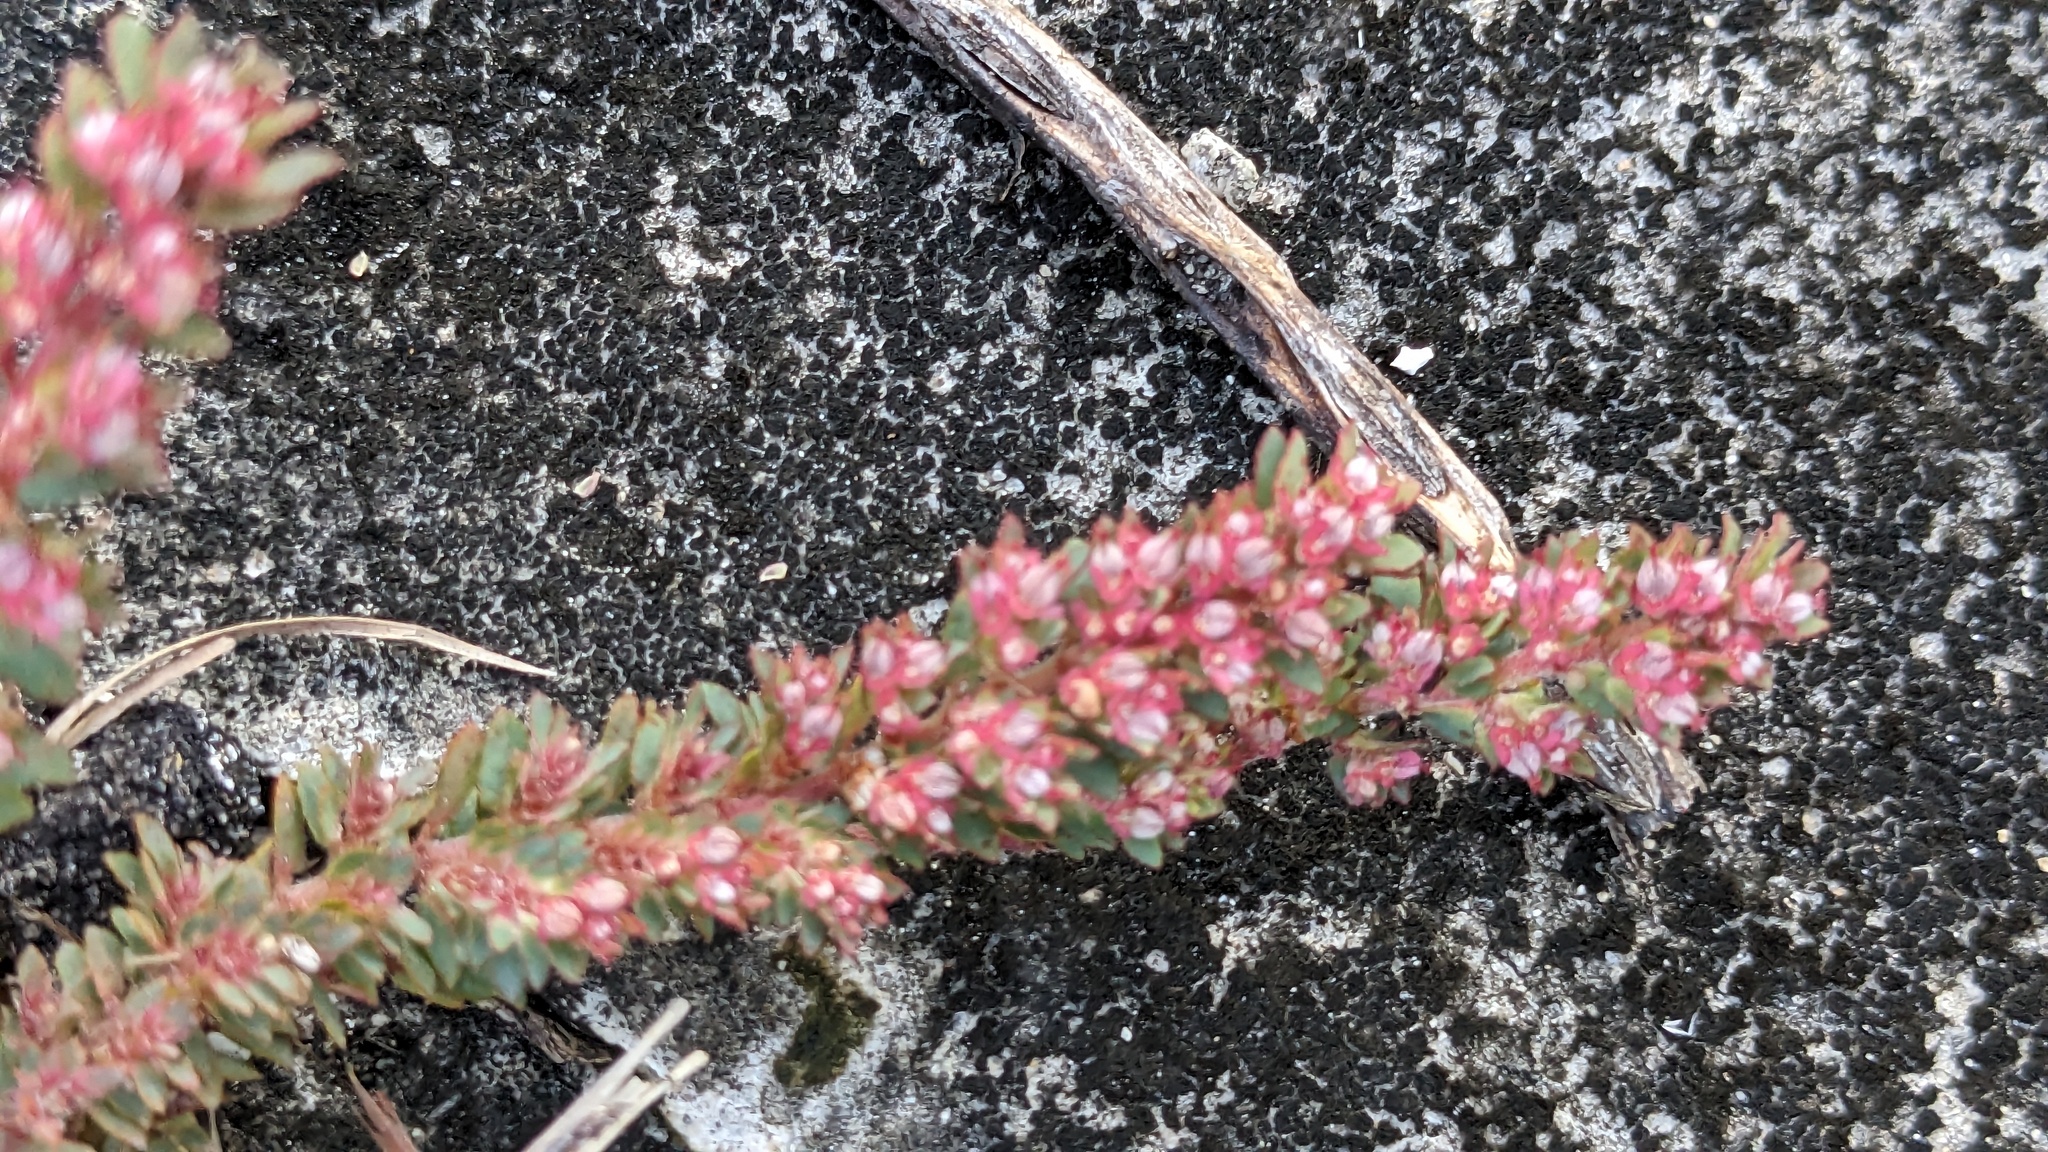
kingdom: Plantae
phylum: Tracheophyta
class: Magnoliopsida
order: Malpighiales
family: Euphorbiaceae
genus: Euphorbia
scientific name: Euphorbia conferta
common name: Everglade key sandmat
